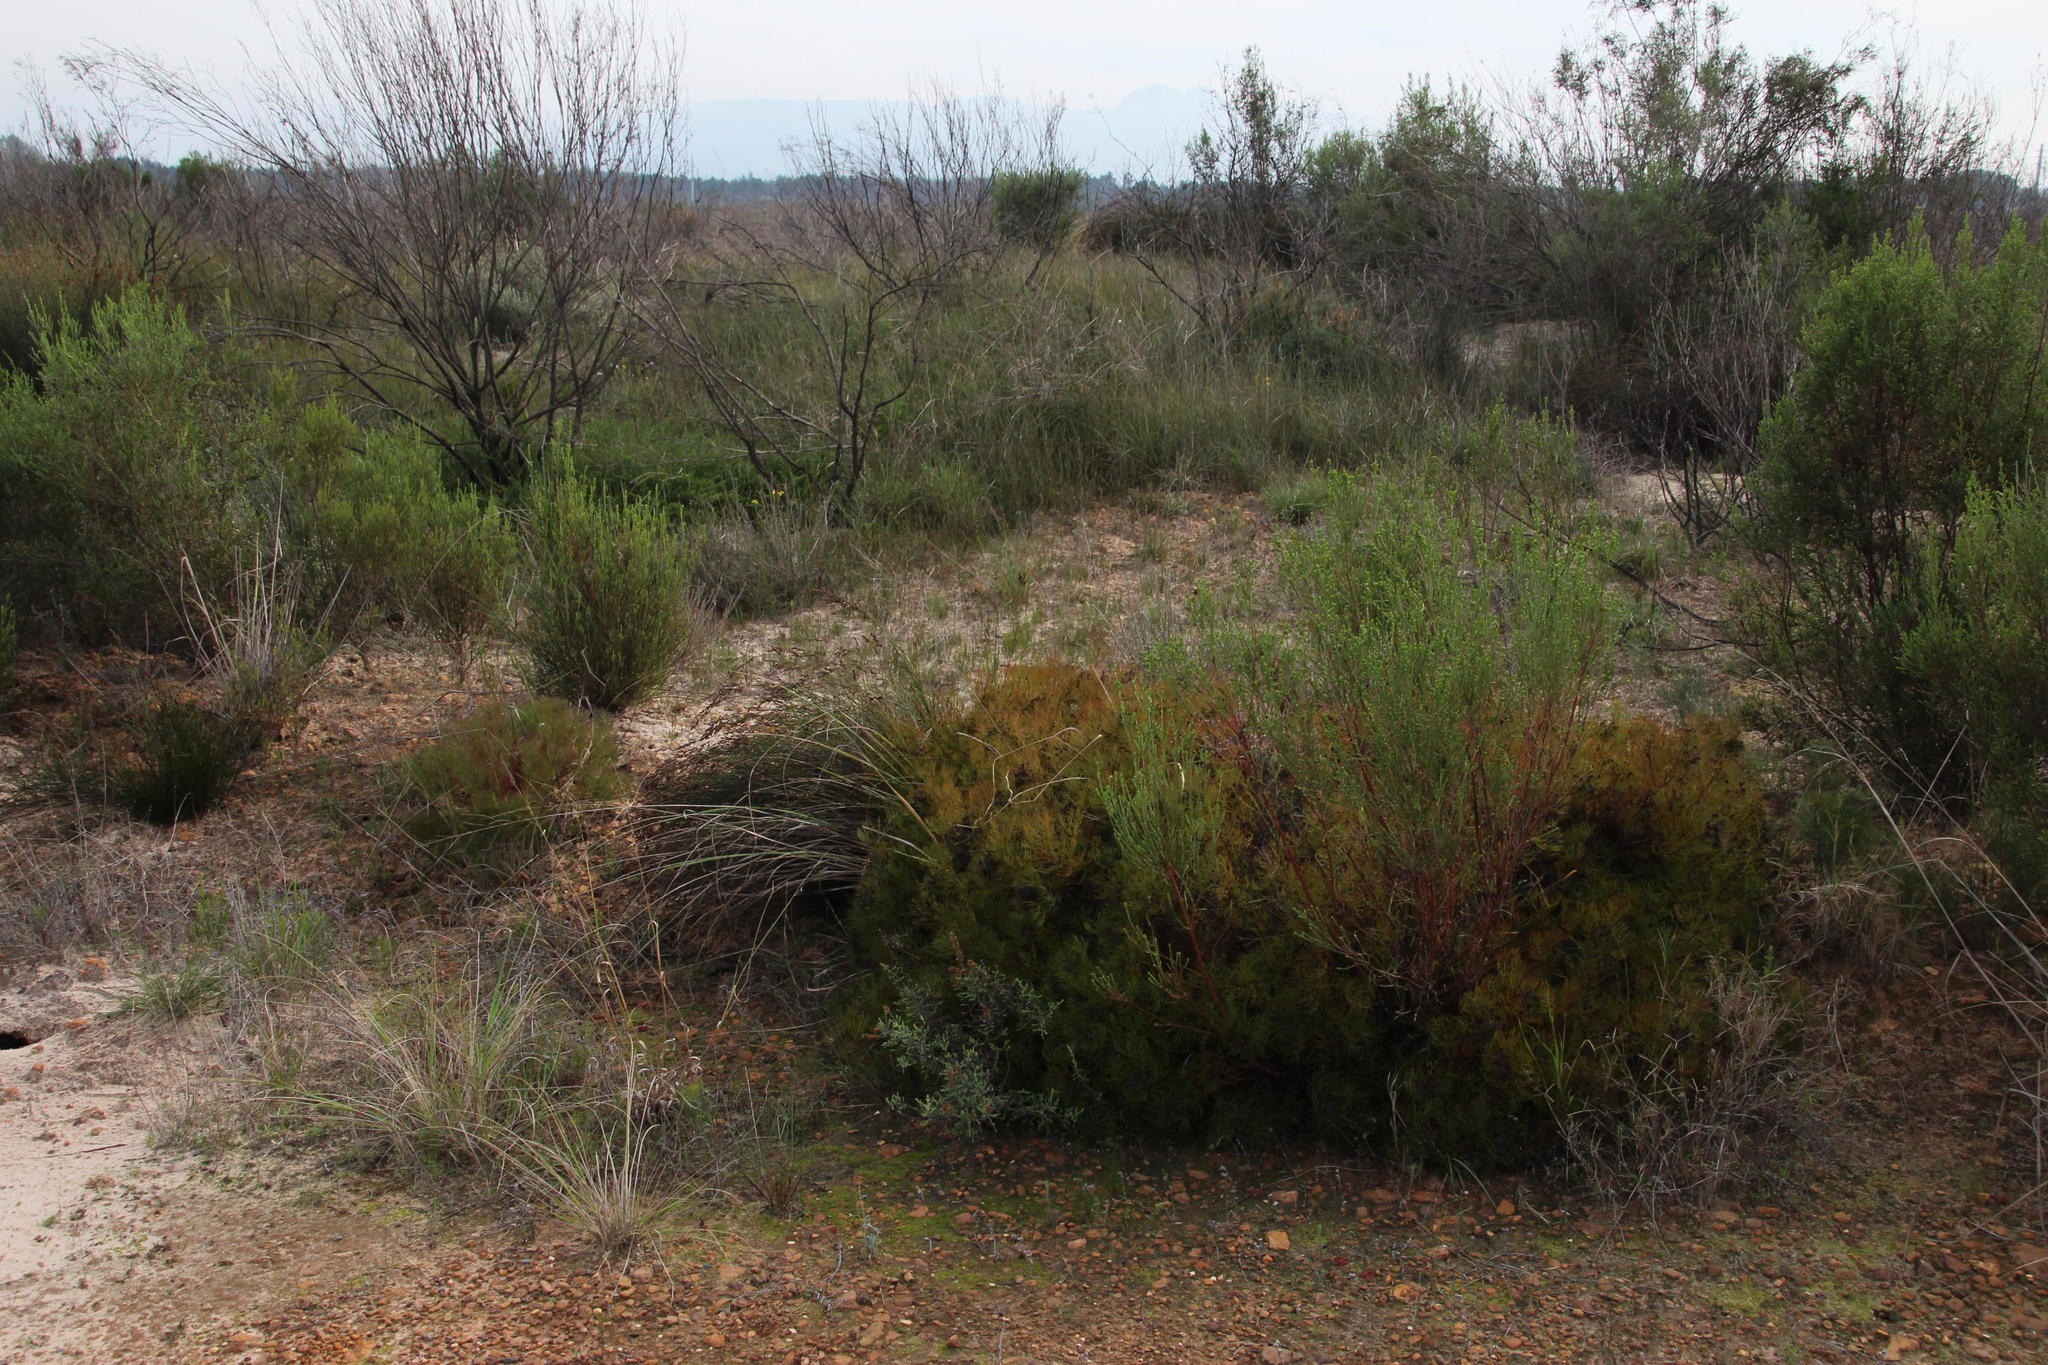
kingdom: Plantae
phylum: Tracheophyta
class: Magnoliopsida
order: Proteales
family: Proteaceae
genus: Serruria
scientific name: Serruria fasciflora
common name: Common pin spiderhead
